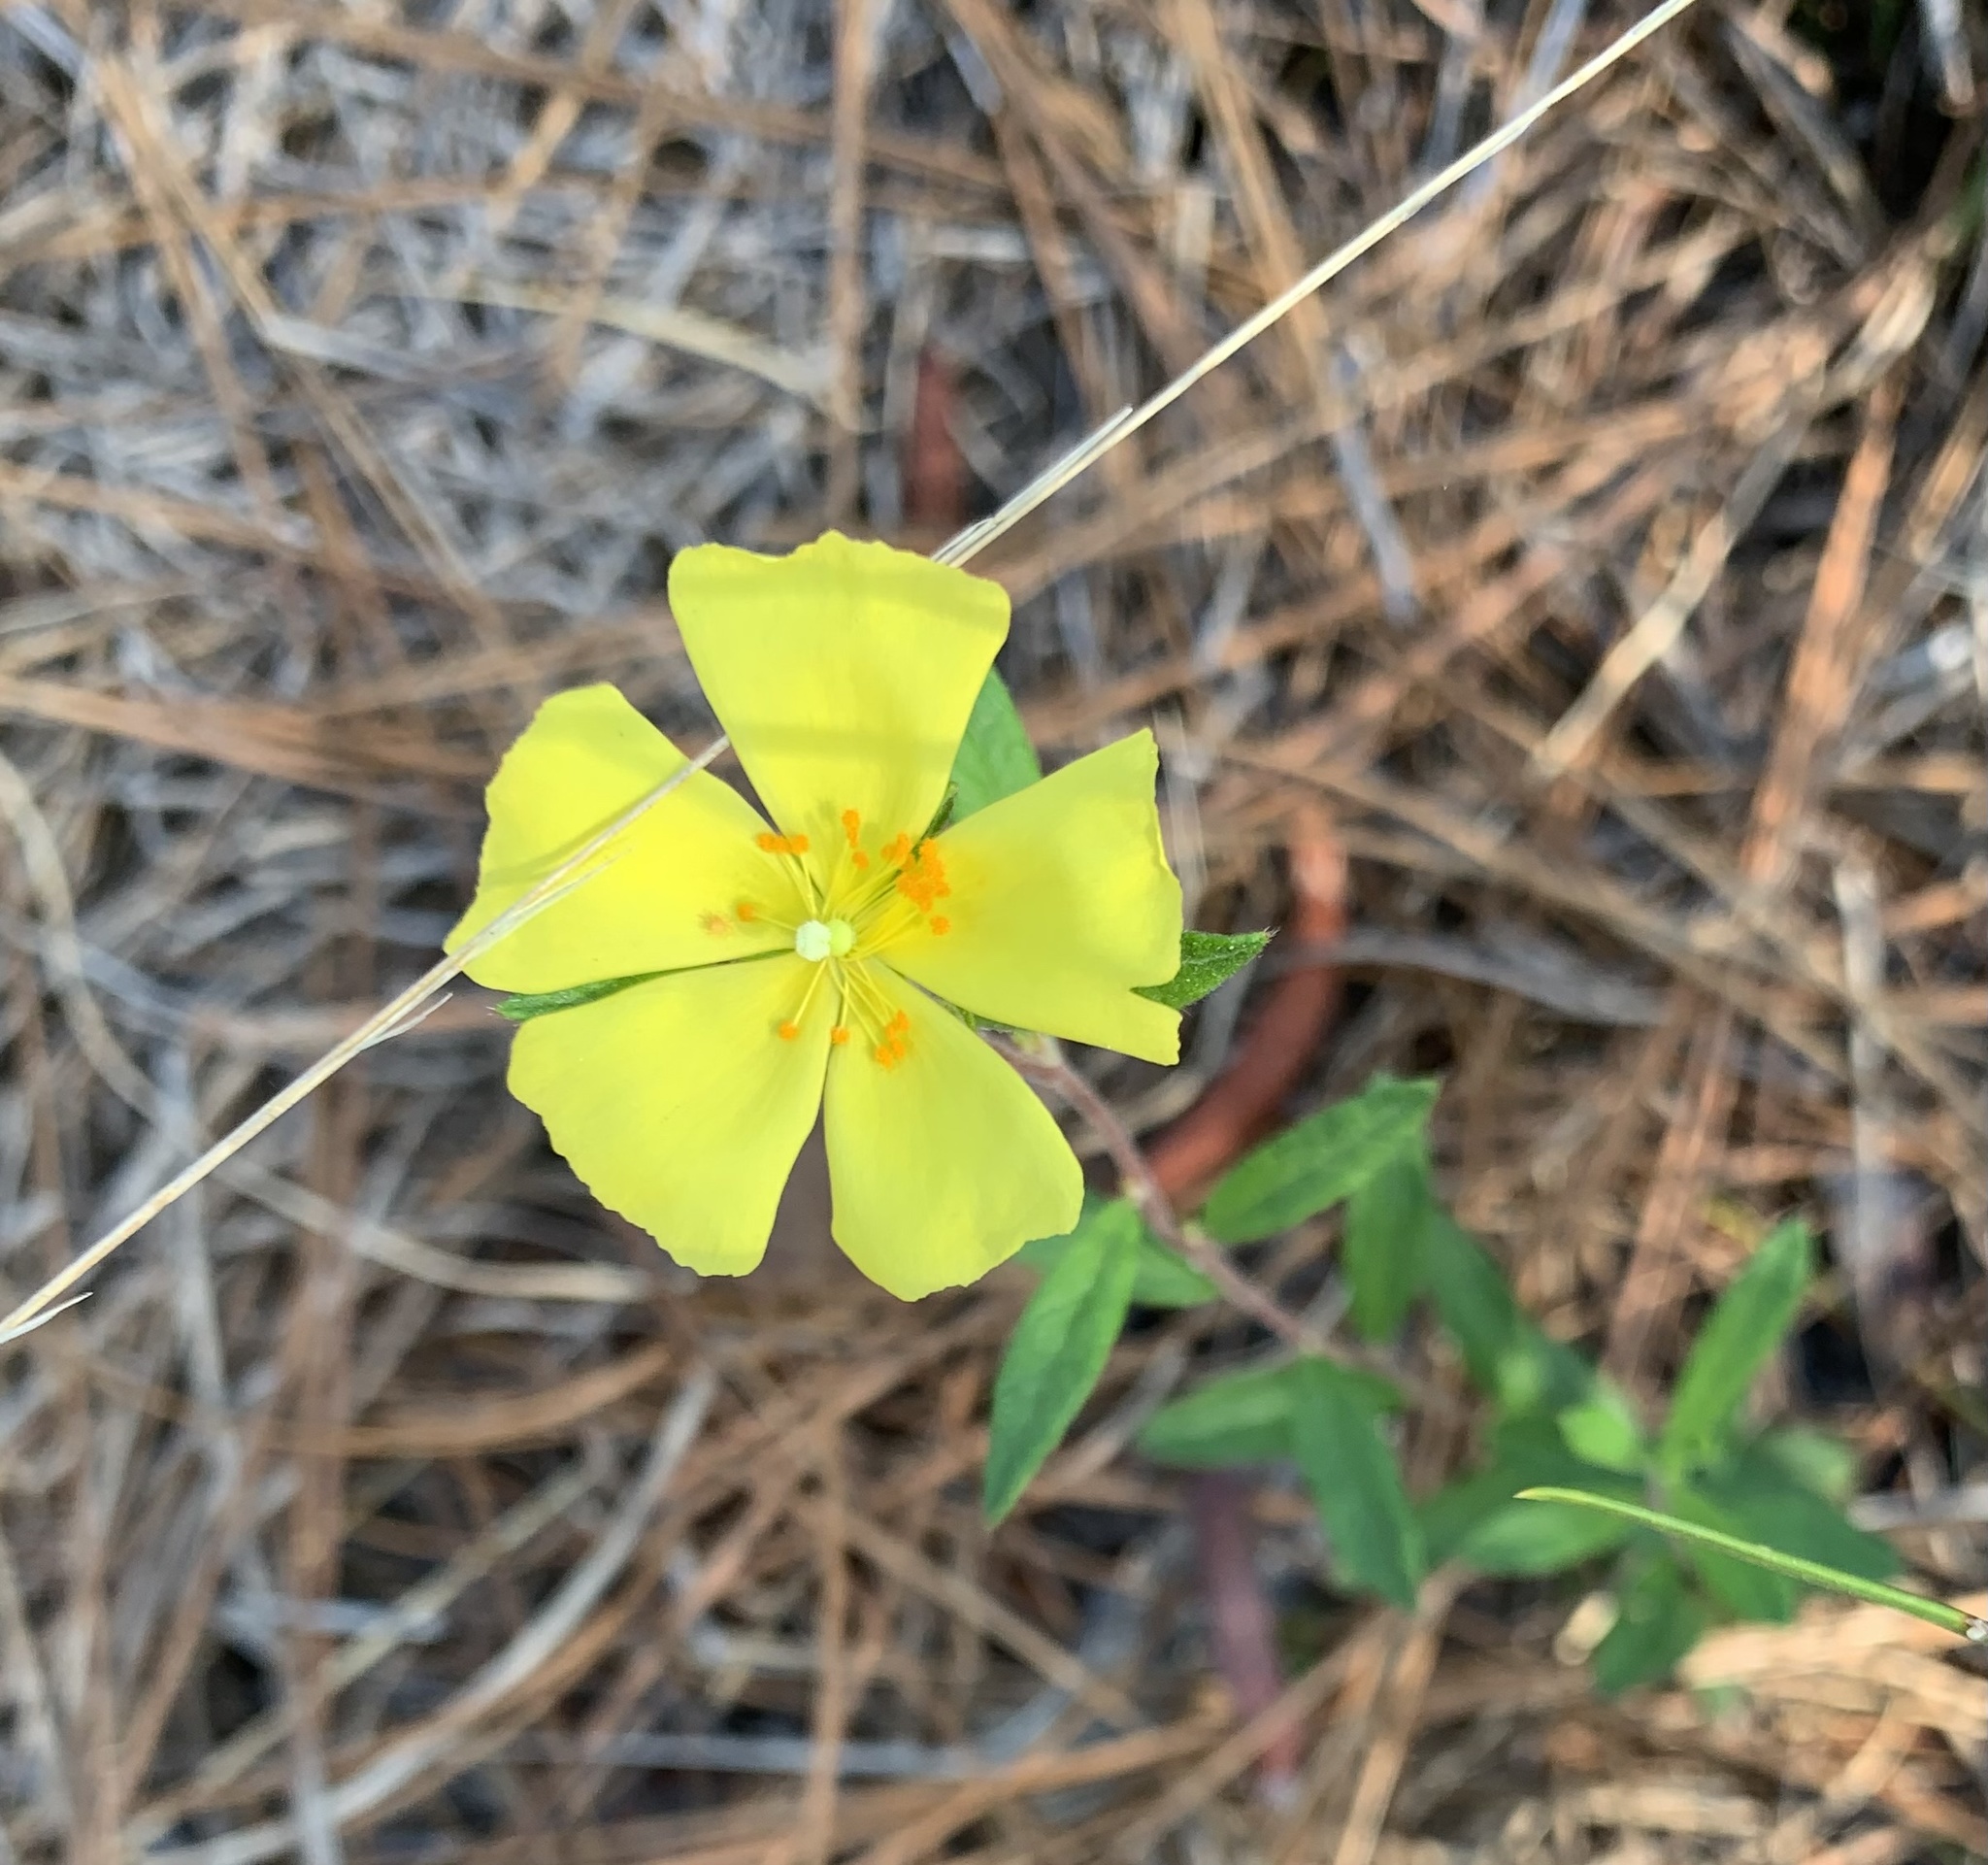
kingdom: Plantae
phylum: Tracheophyta
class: Magnoliopsida
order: Malvales
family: Cistaceae
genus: Crocanthemum
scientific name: Crocanthemum canadense
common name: Canada frostweed
